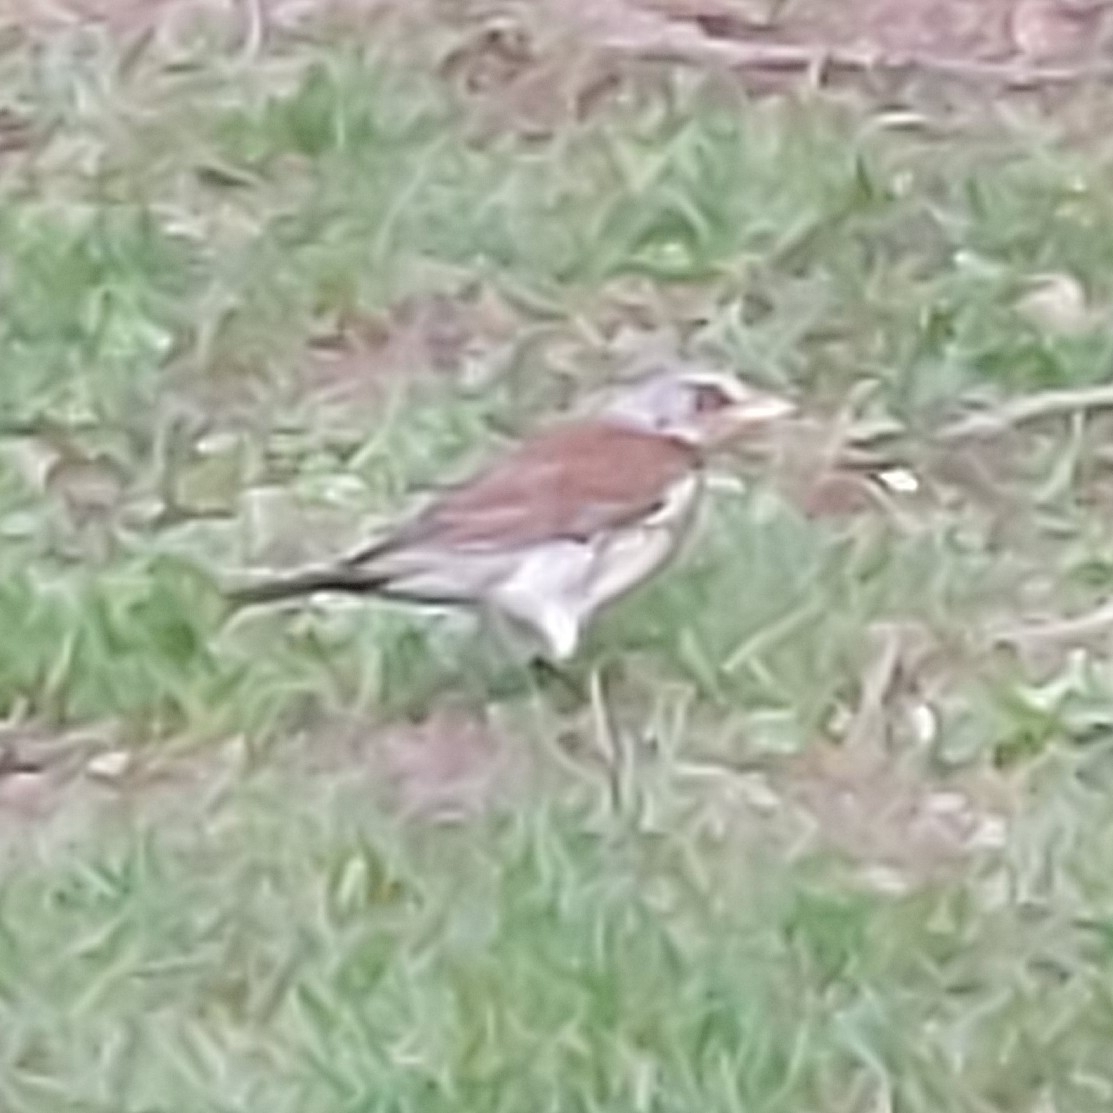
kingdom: Animalia
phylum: Chordata
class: Aves
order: Passeriformes
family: Turdidae
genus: Turdus
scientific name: Turdus pilaris
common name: Fieldfare
